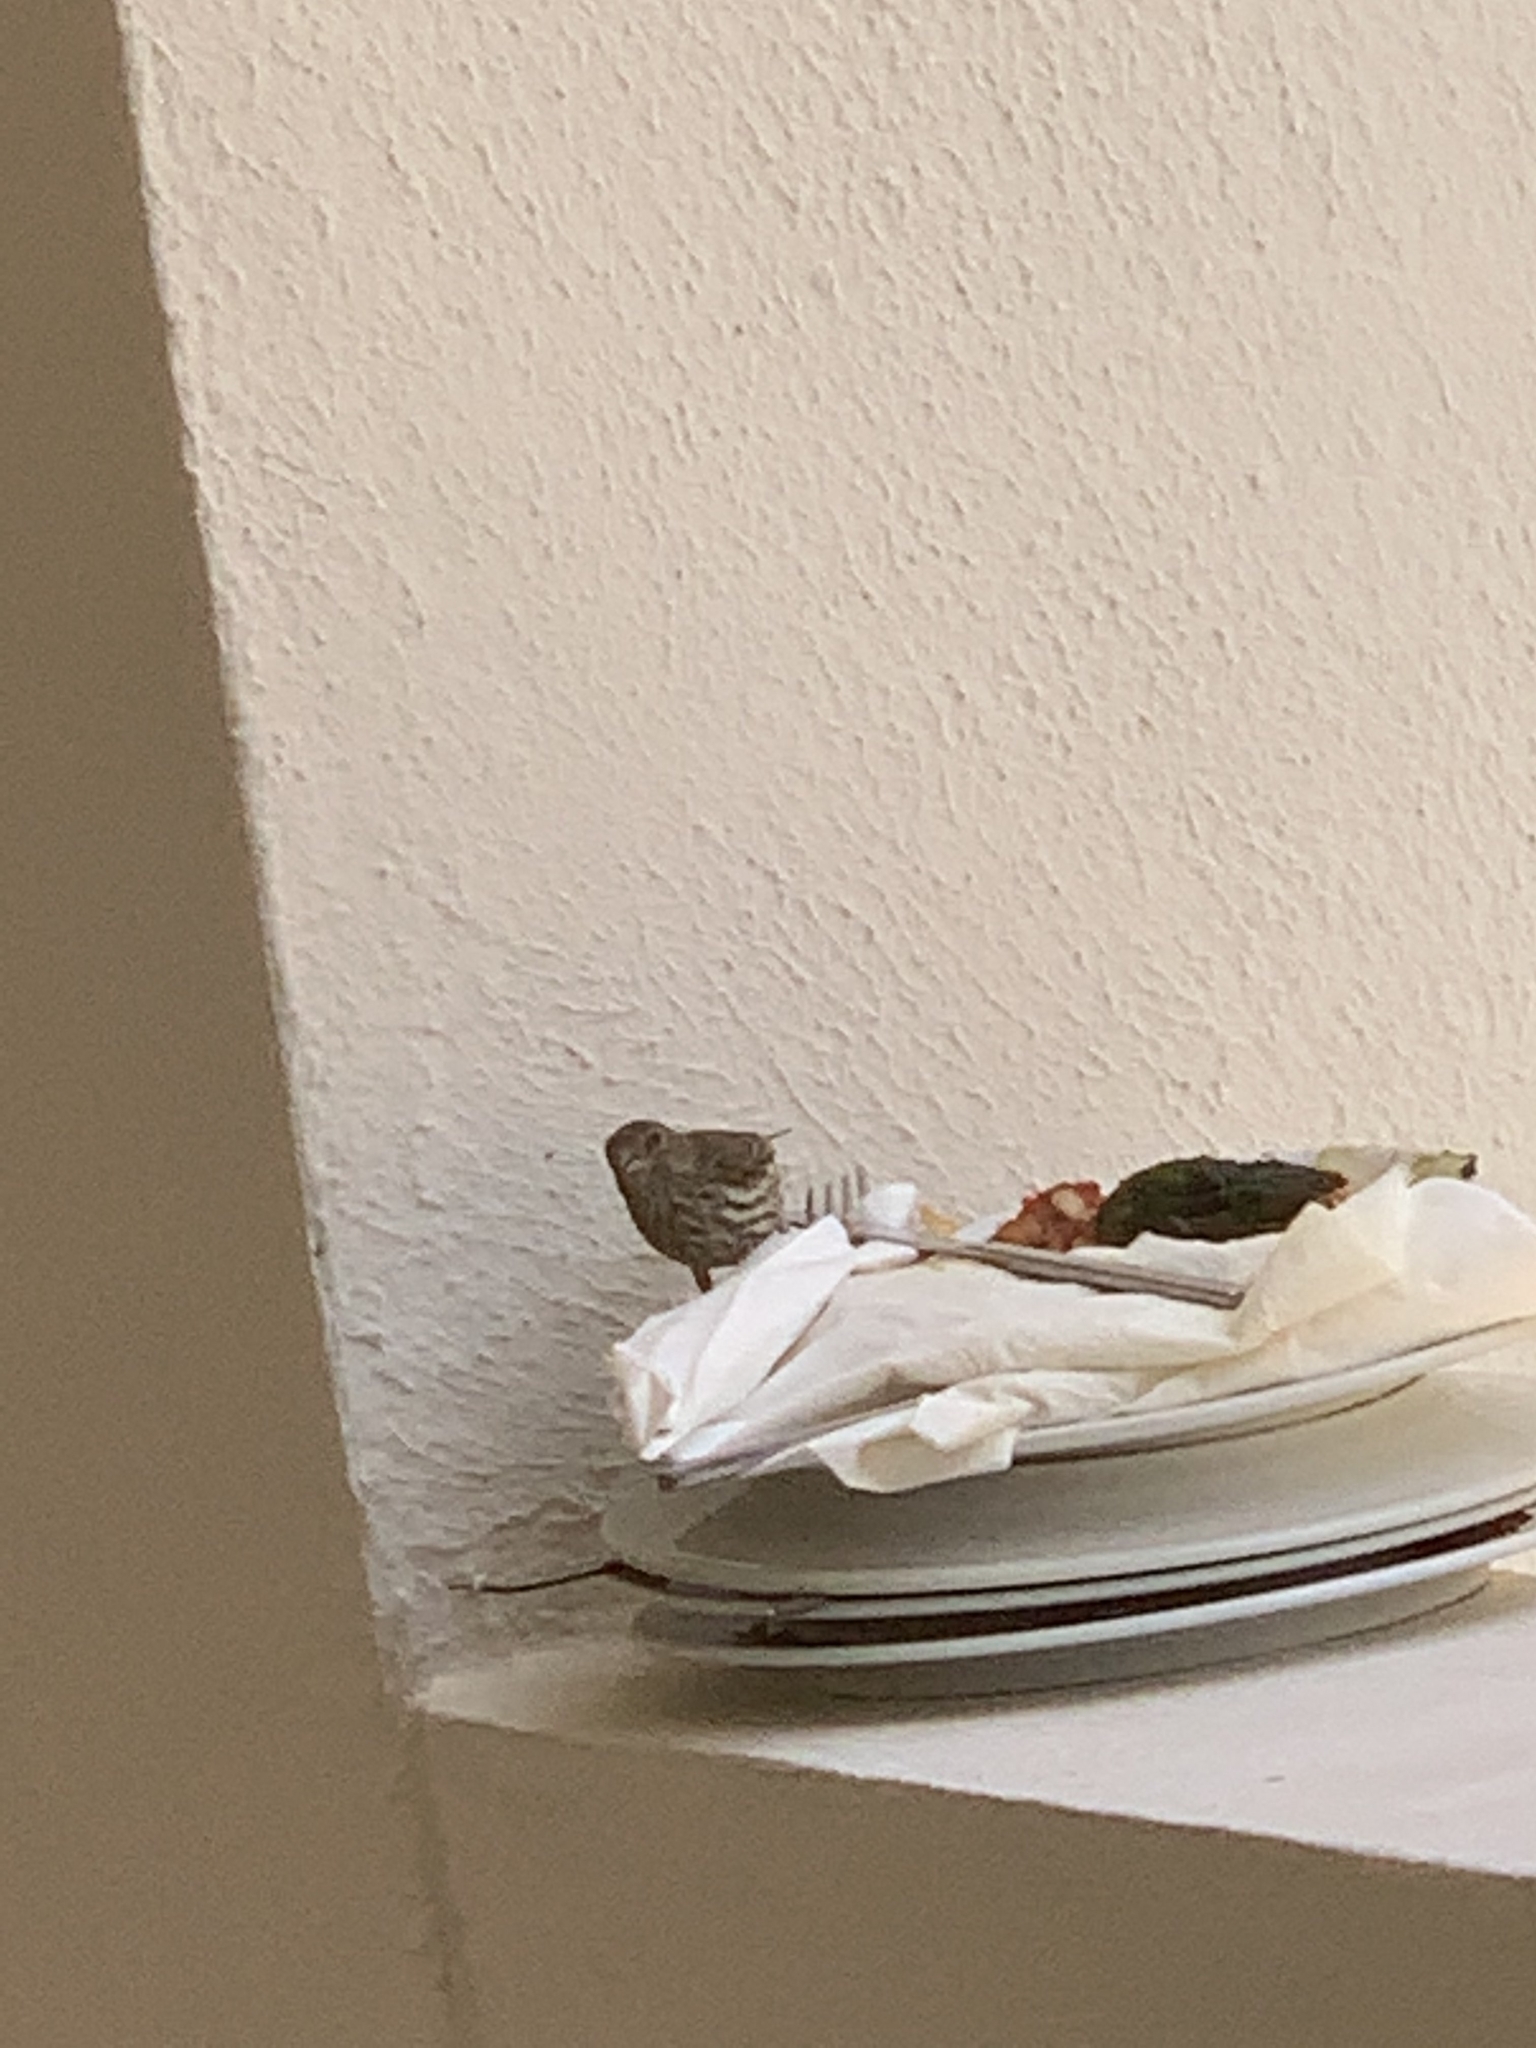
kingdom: Animalia
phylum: Chordata
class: Aves
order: Passeriformes
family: Fringillidae
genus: Haemorhous
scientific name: Haemorhous mexicanus
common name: House finch
